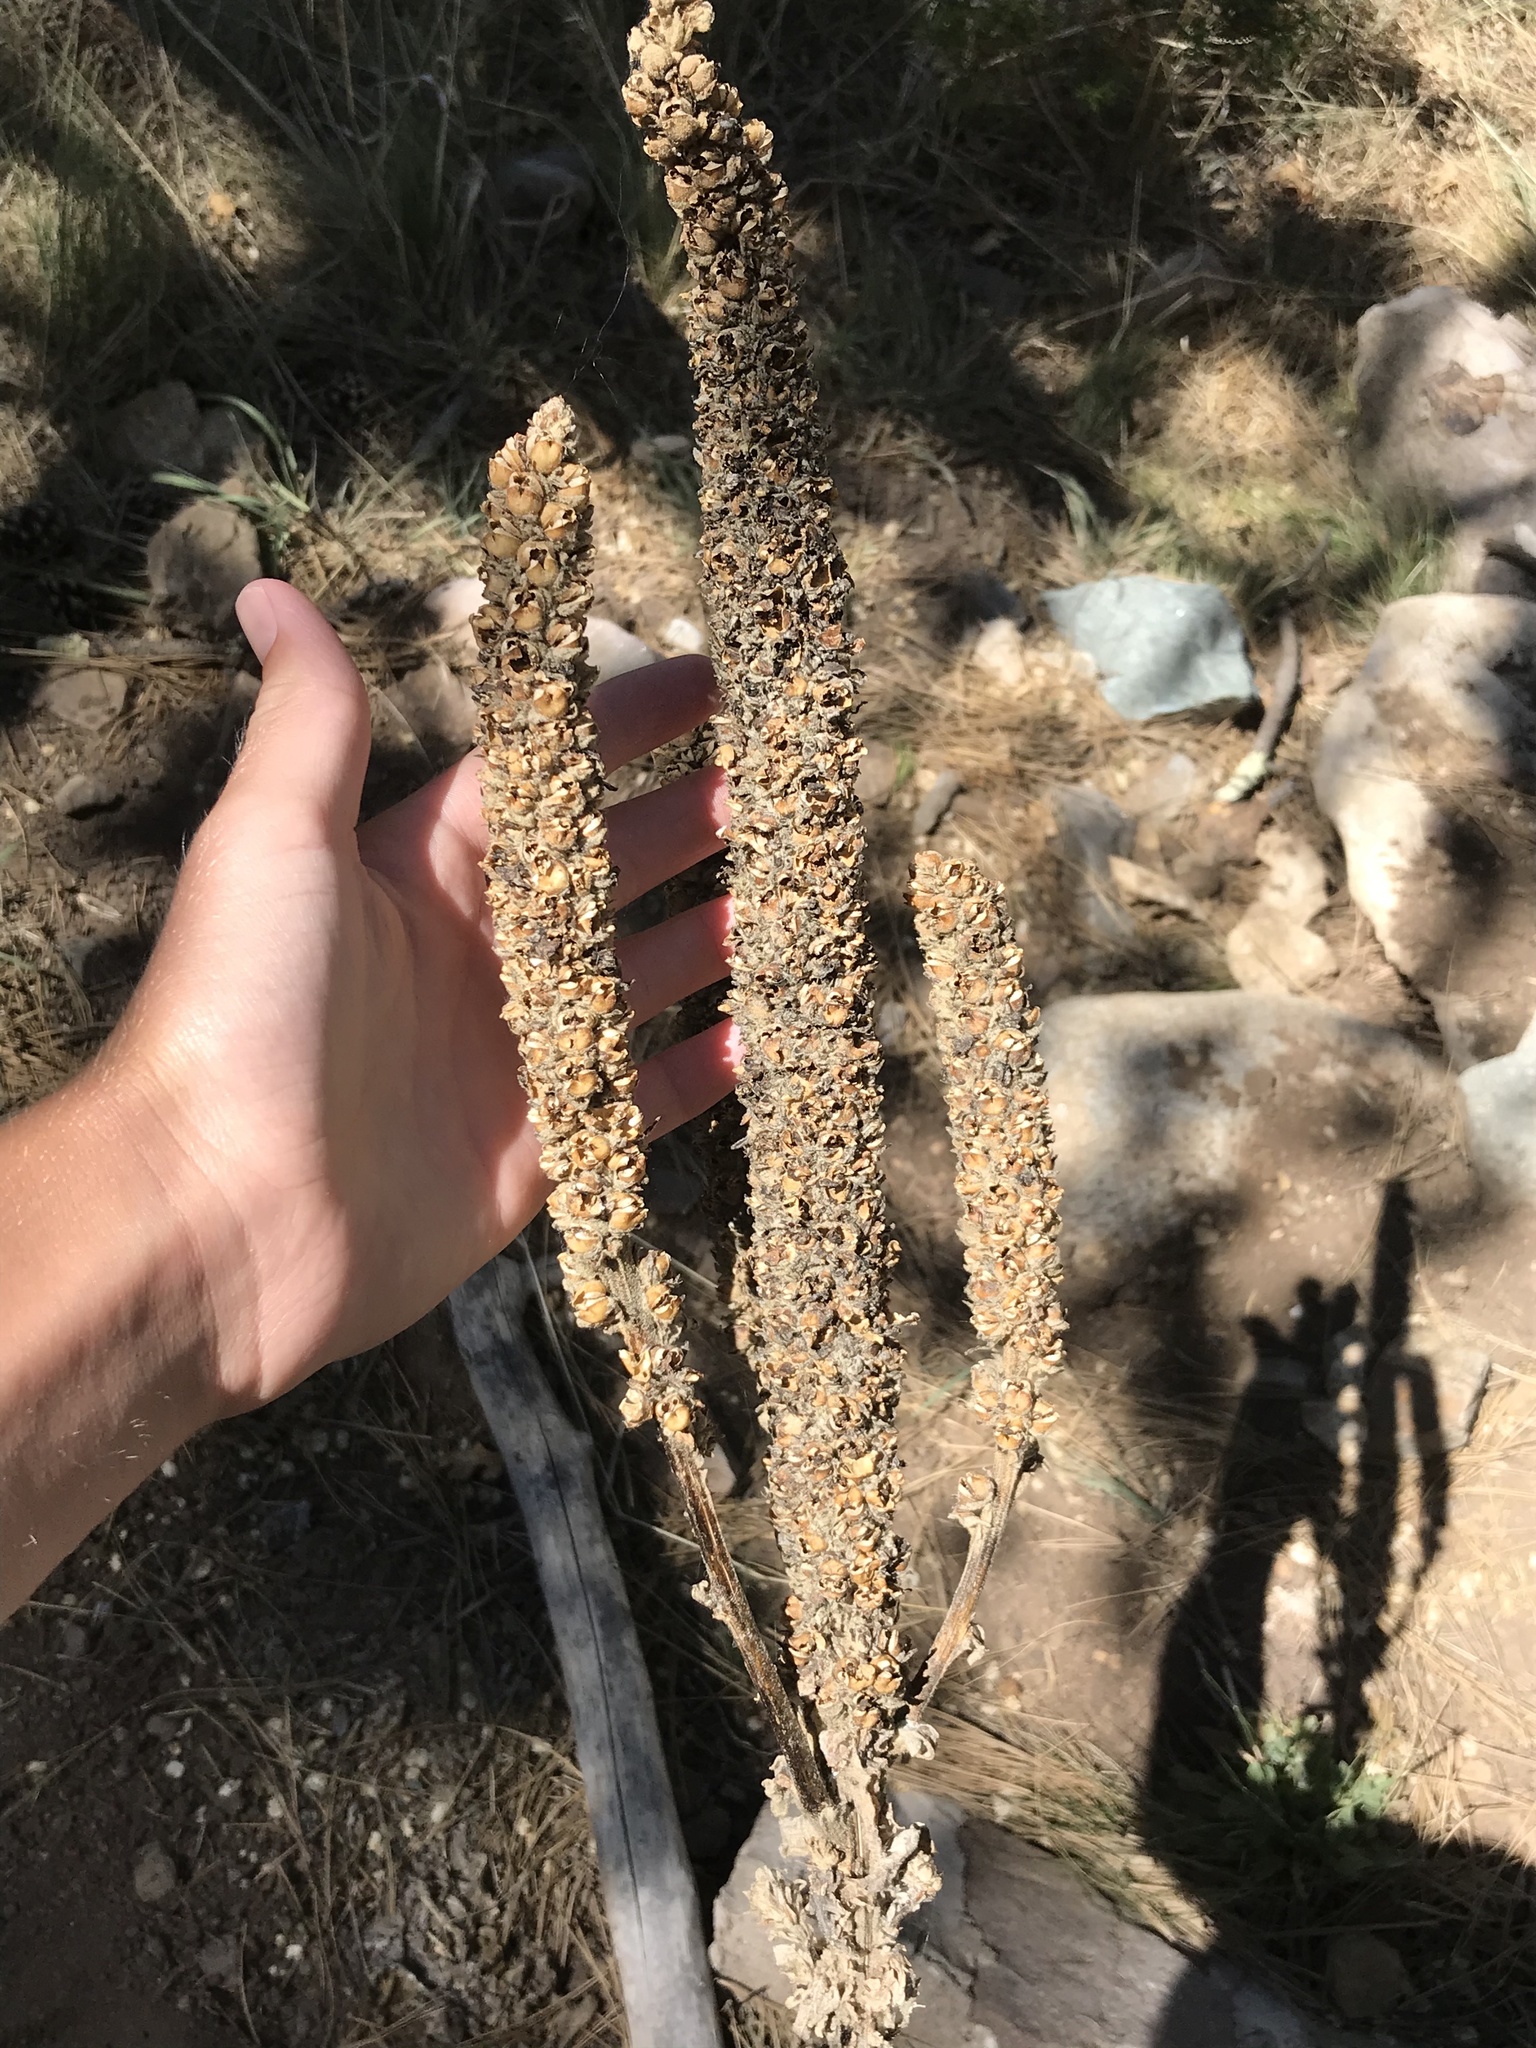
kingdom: Plantae
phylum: Tracheophyta
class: Magnoliopsida
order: Lamiales
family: Scrophulariaceae
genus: Verbascum
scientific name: Verbascum thapsus
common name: Common mullein
